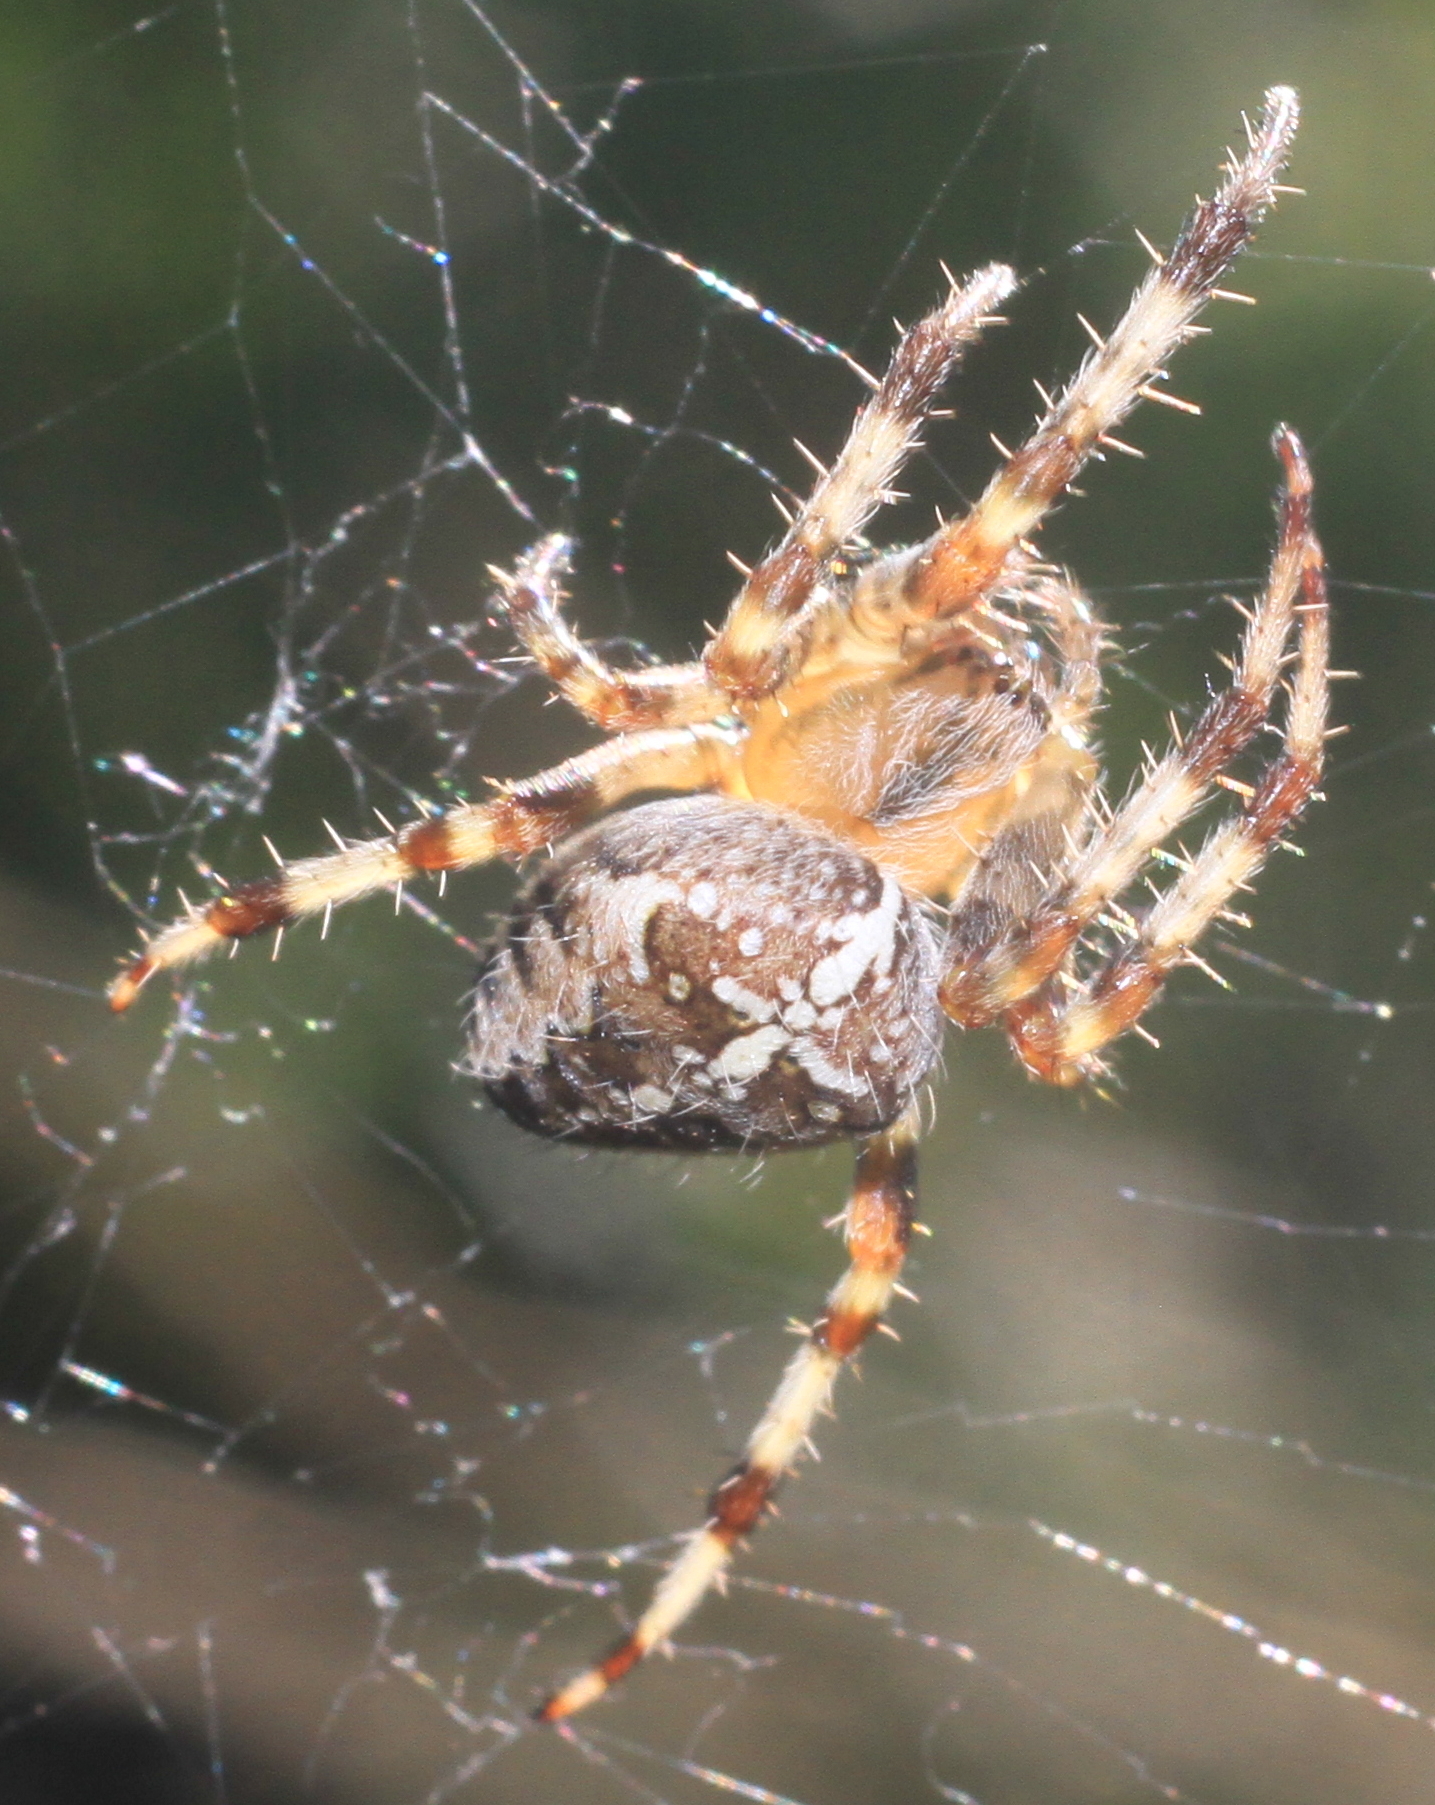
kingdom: Animalia
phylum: Arthropoda
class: Arachnida
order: Araneae
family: Araneidae
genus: Araneus
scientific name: Araneus diadematus
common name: Cross orbweaver
